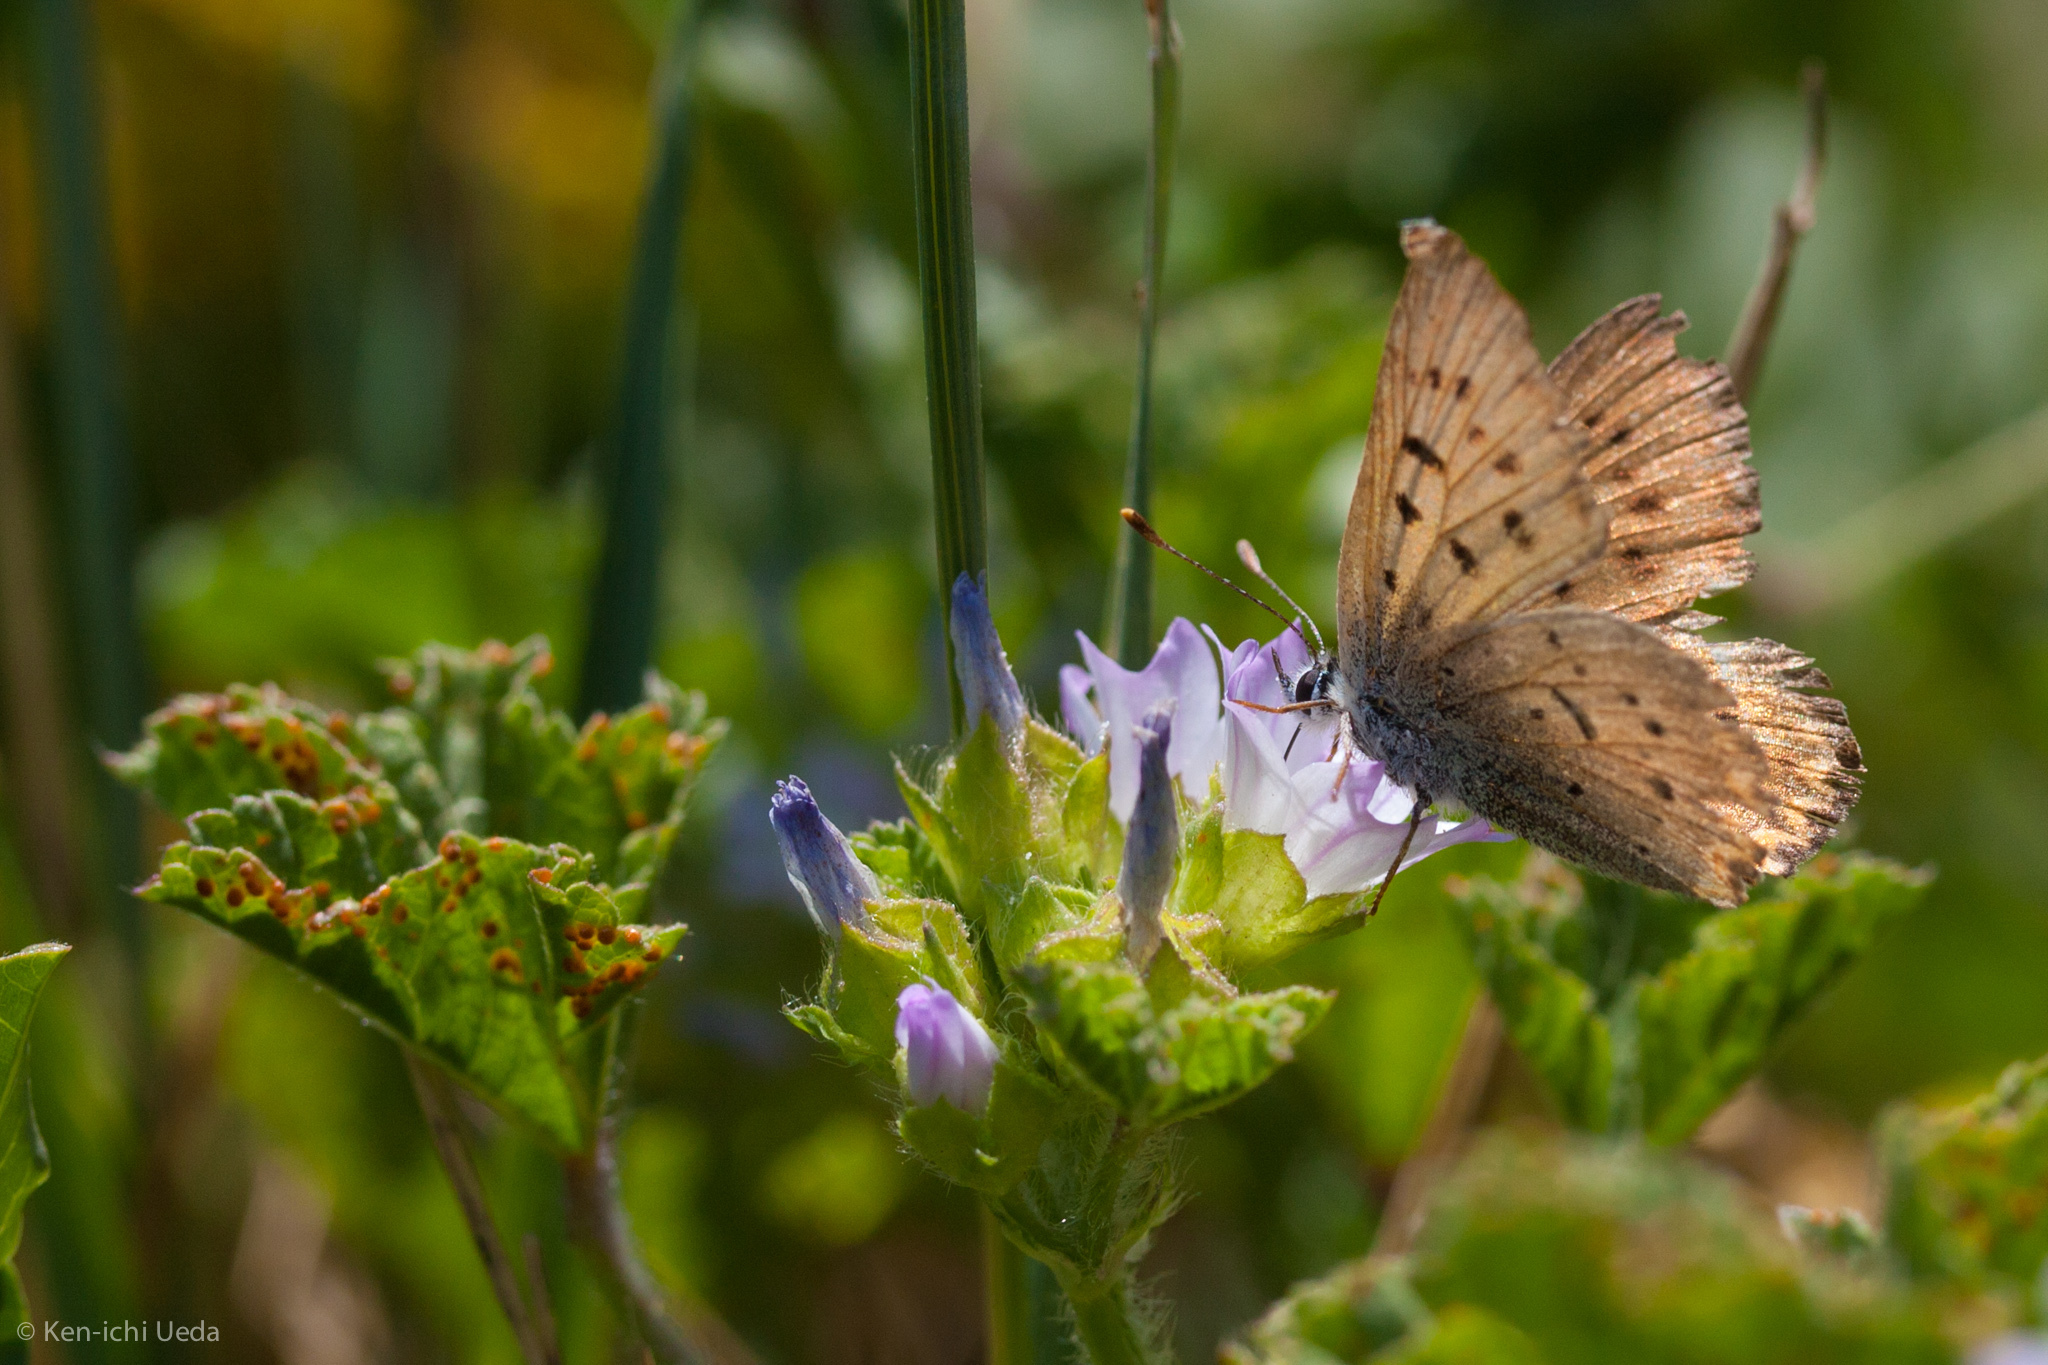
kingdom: Animalia
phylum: Arthropoda
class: Insecta
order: Lepidoptera
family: Lycaenidae
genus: Tharsalea
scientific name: Tharsalea helloides
